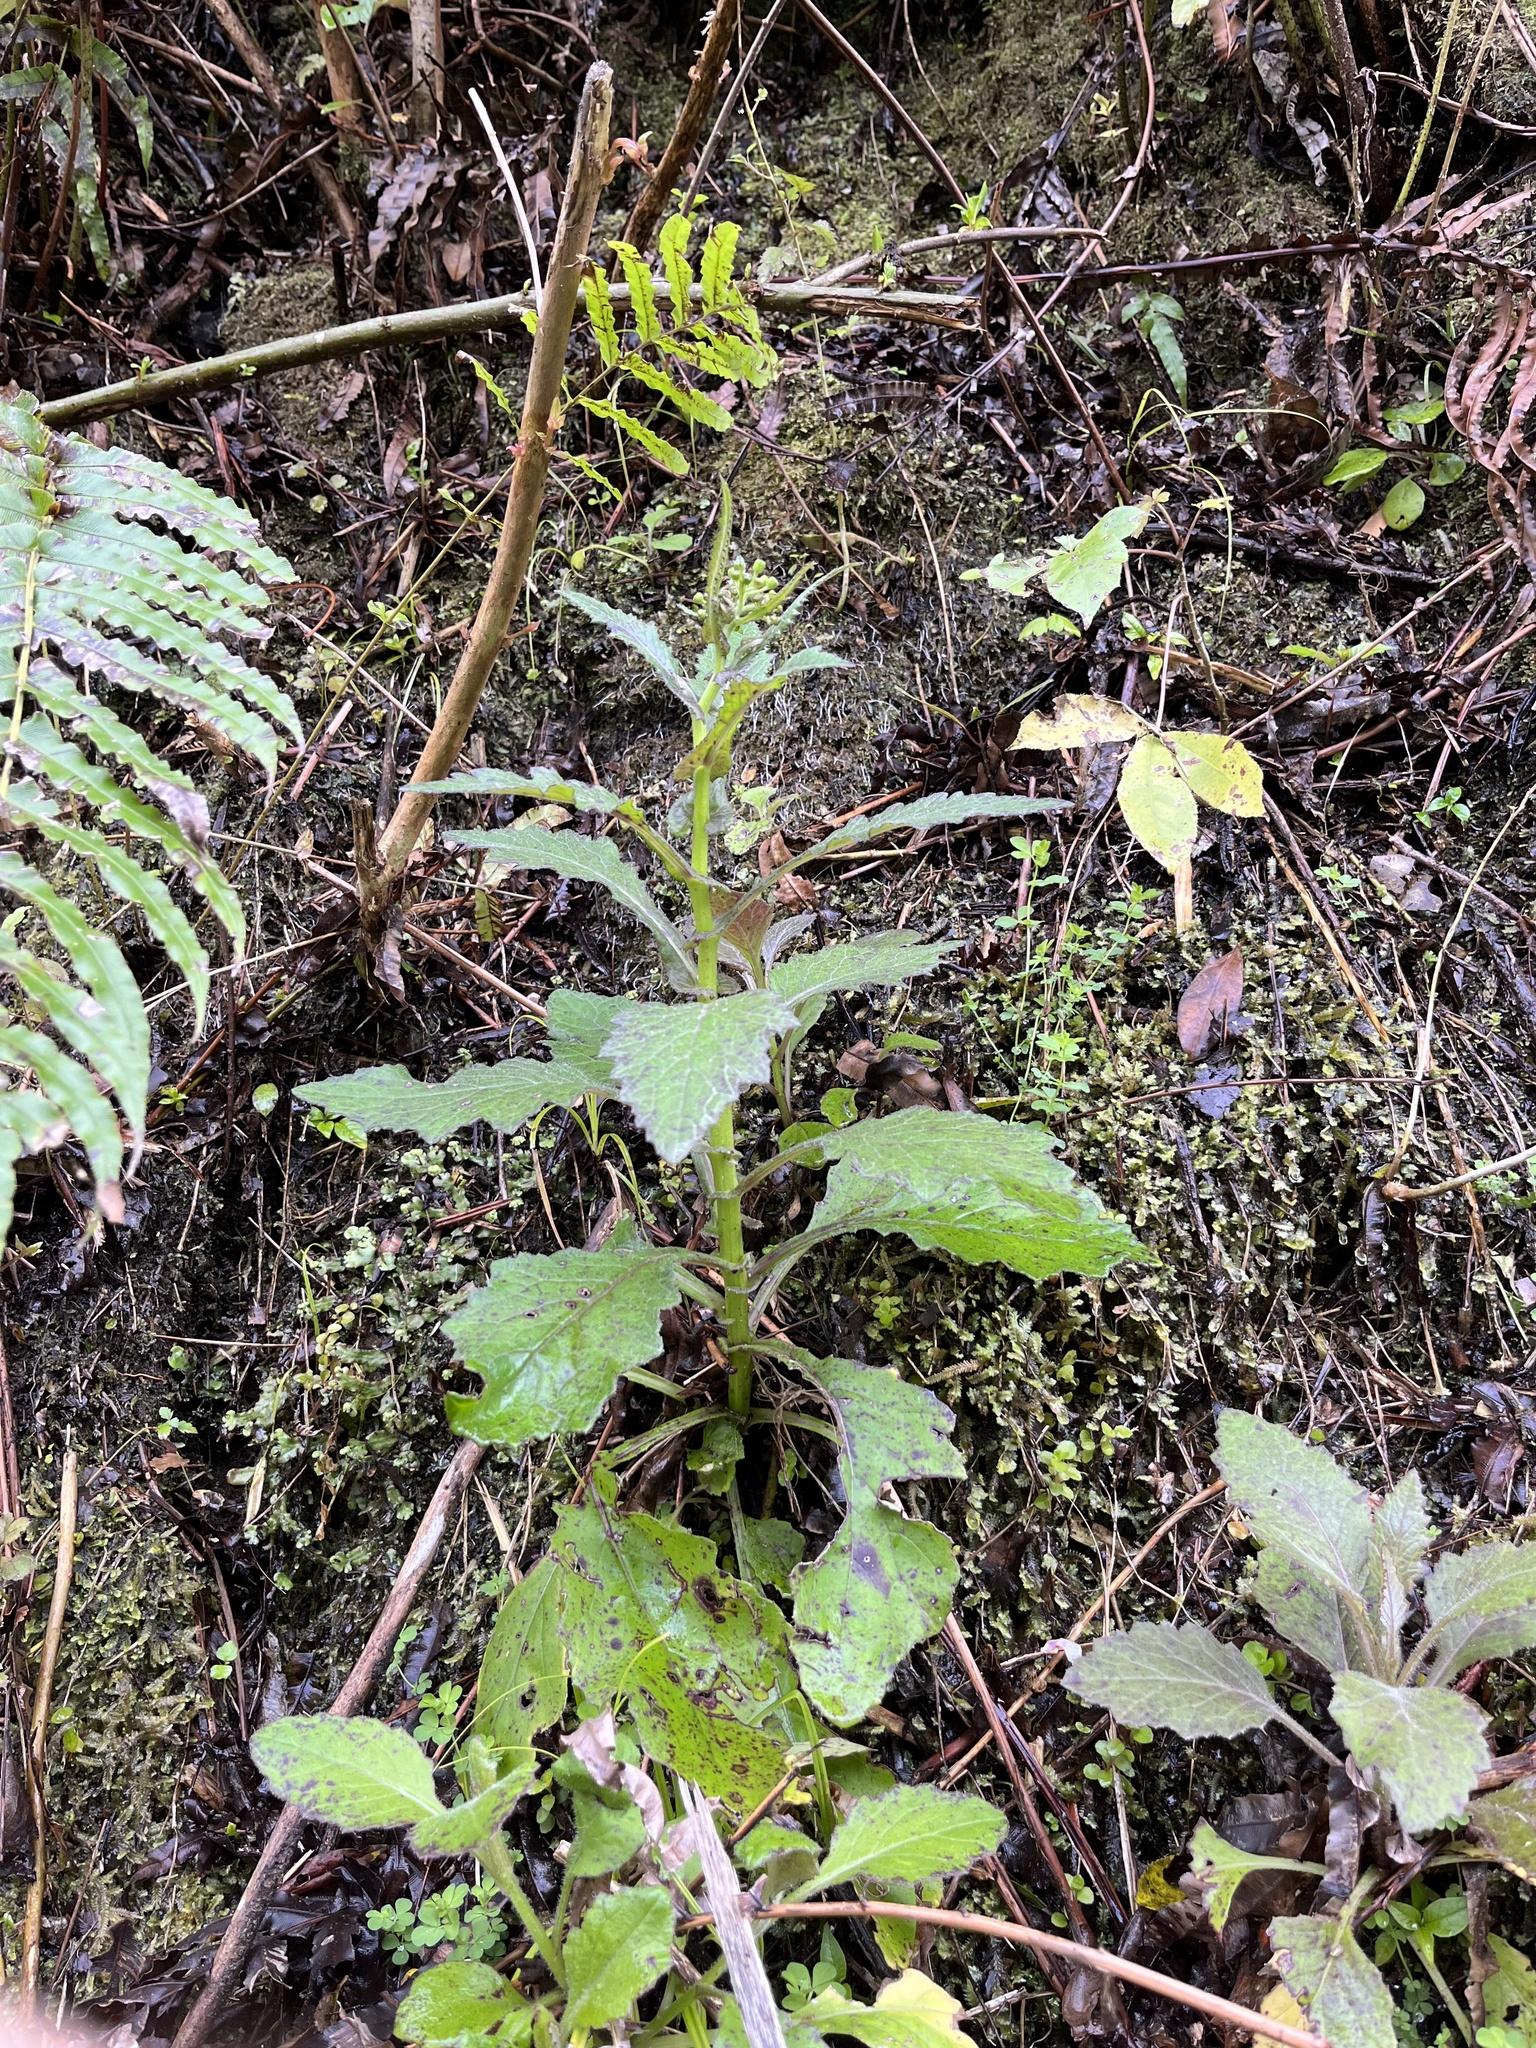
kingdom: Plantae
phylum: Tracheophyta
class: Magnoliopsida
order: Asterales
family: Asteraceae
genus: Senecio
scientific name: Senecio rufiglandulosus
